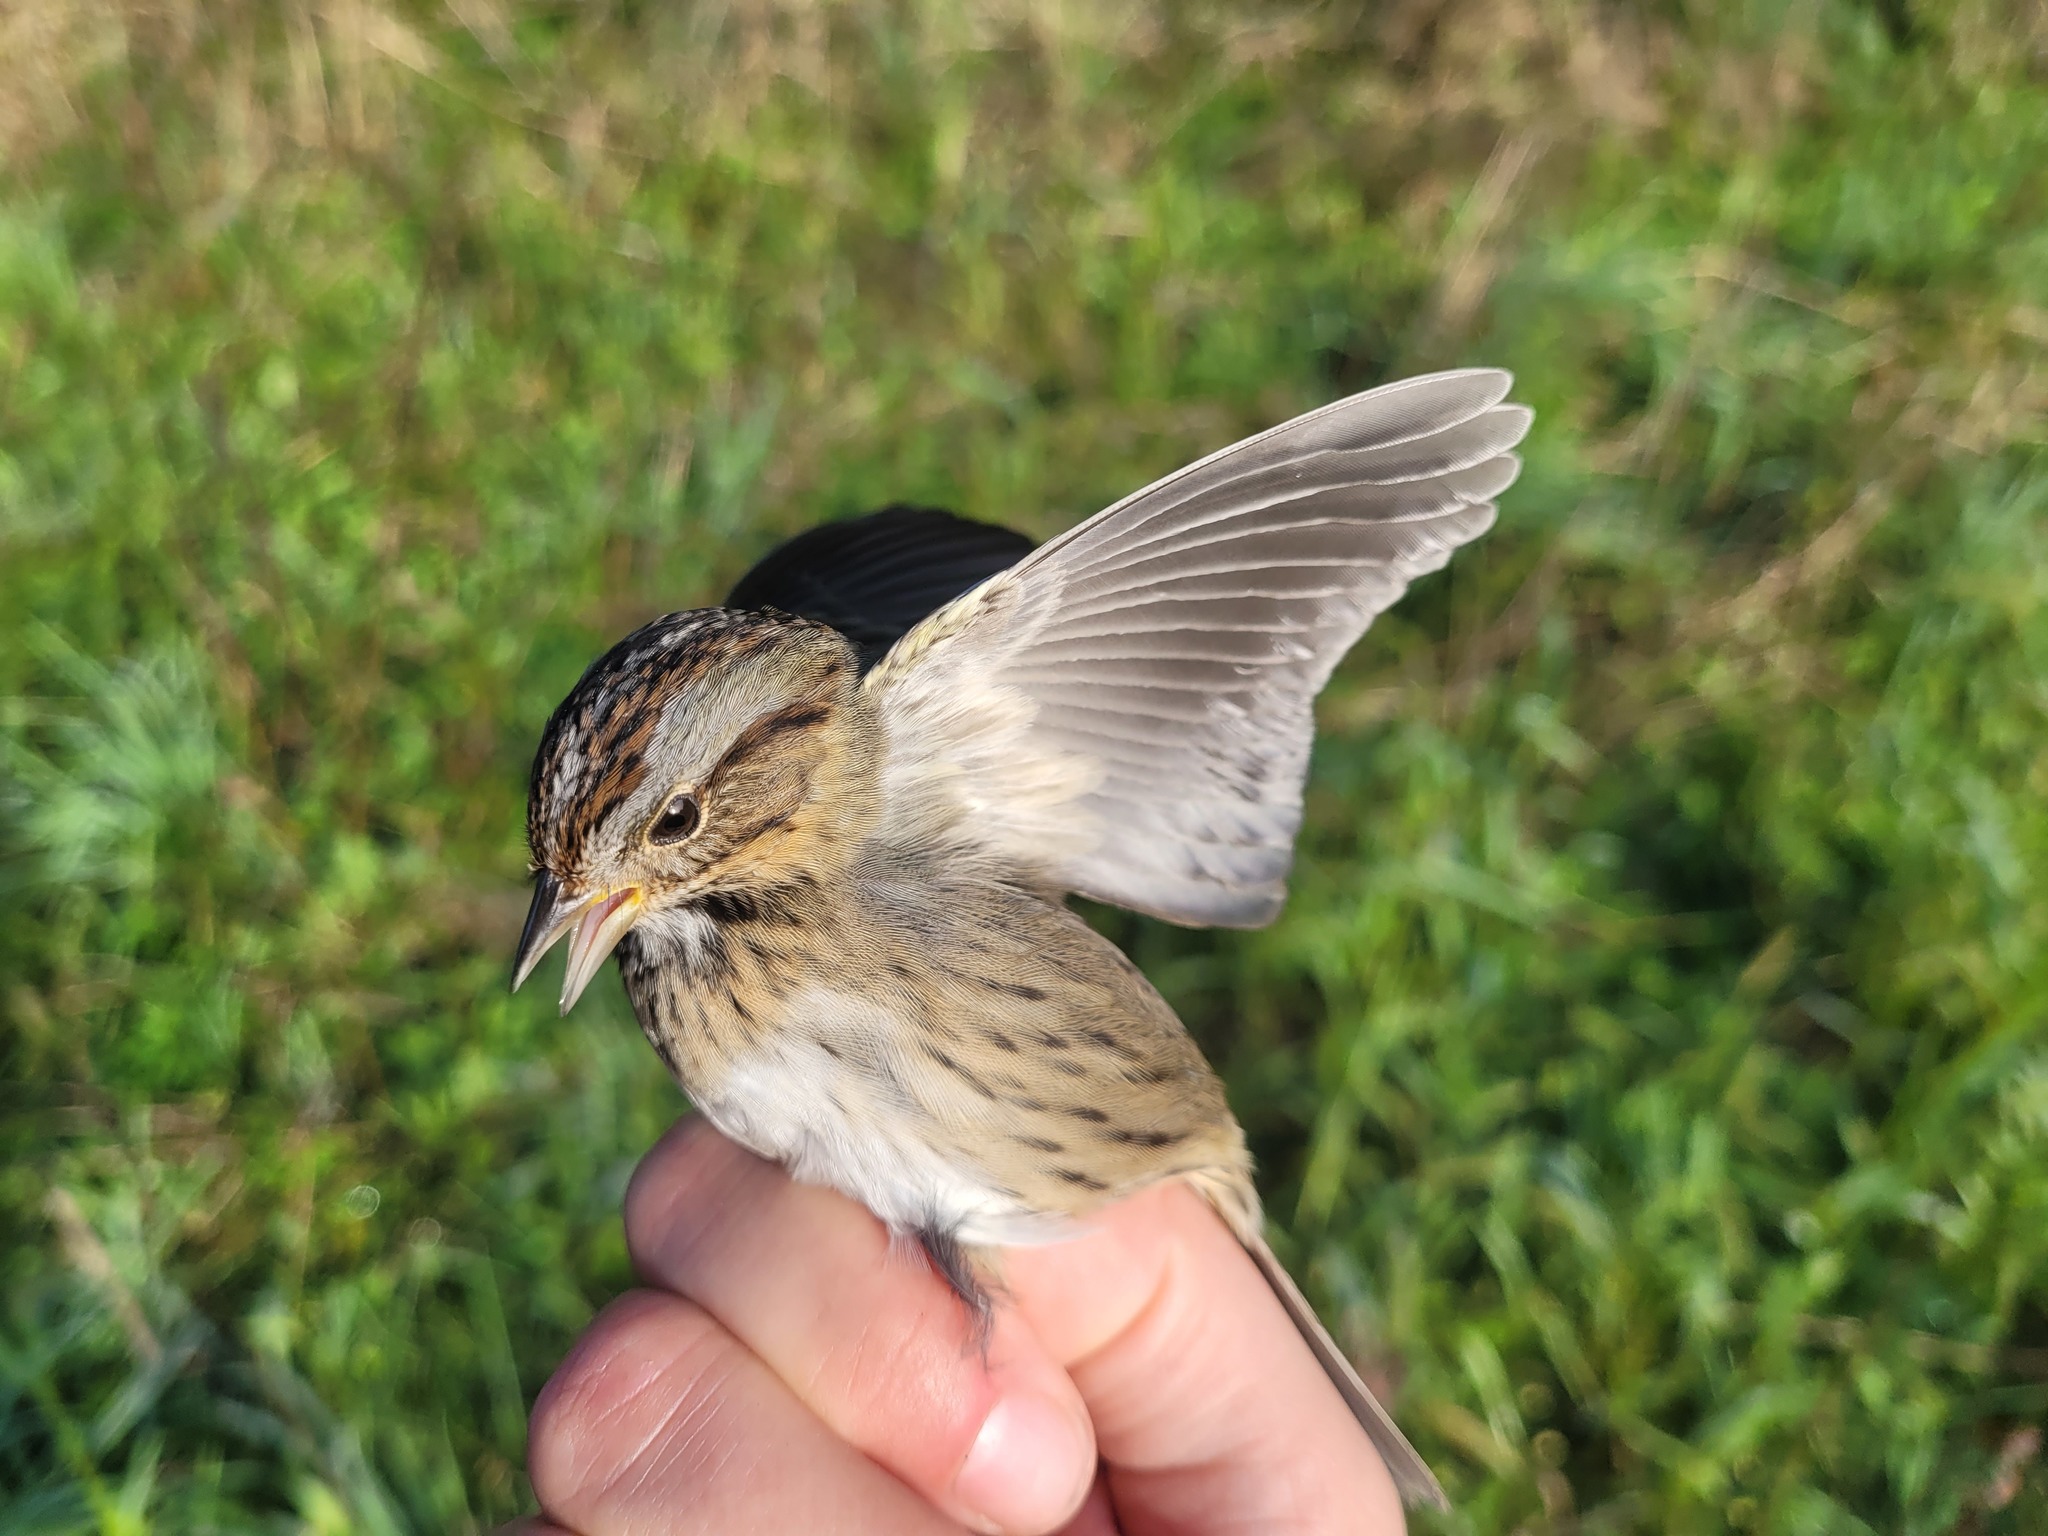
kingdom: Animalia
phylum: Chordata
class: Aves
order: Passeriformes
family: Passerellidae
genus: Melospiza
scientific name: Melospiza lincolnii
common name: Lincoln's sparrow
